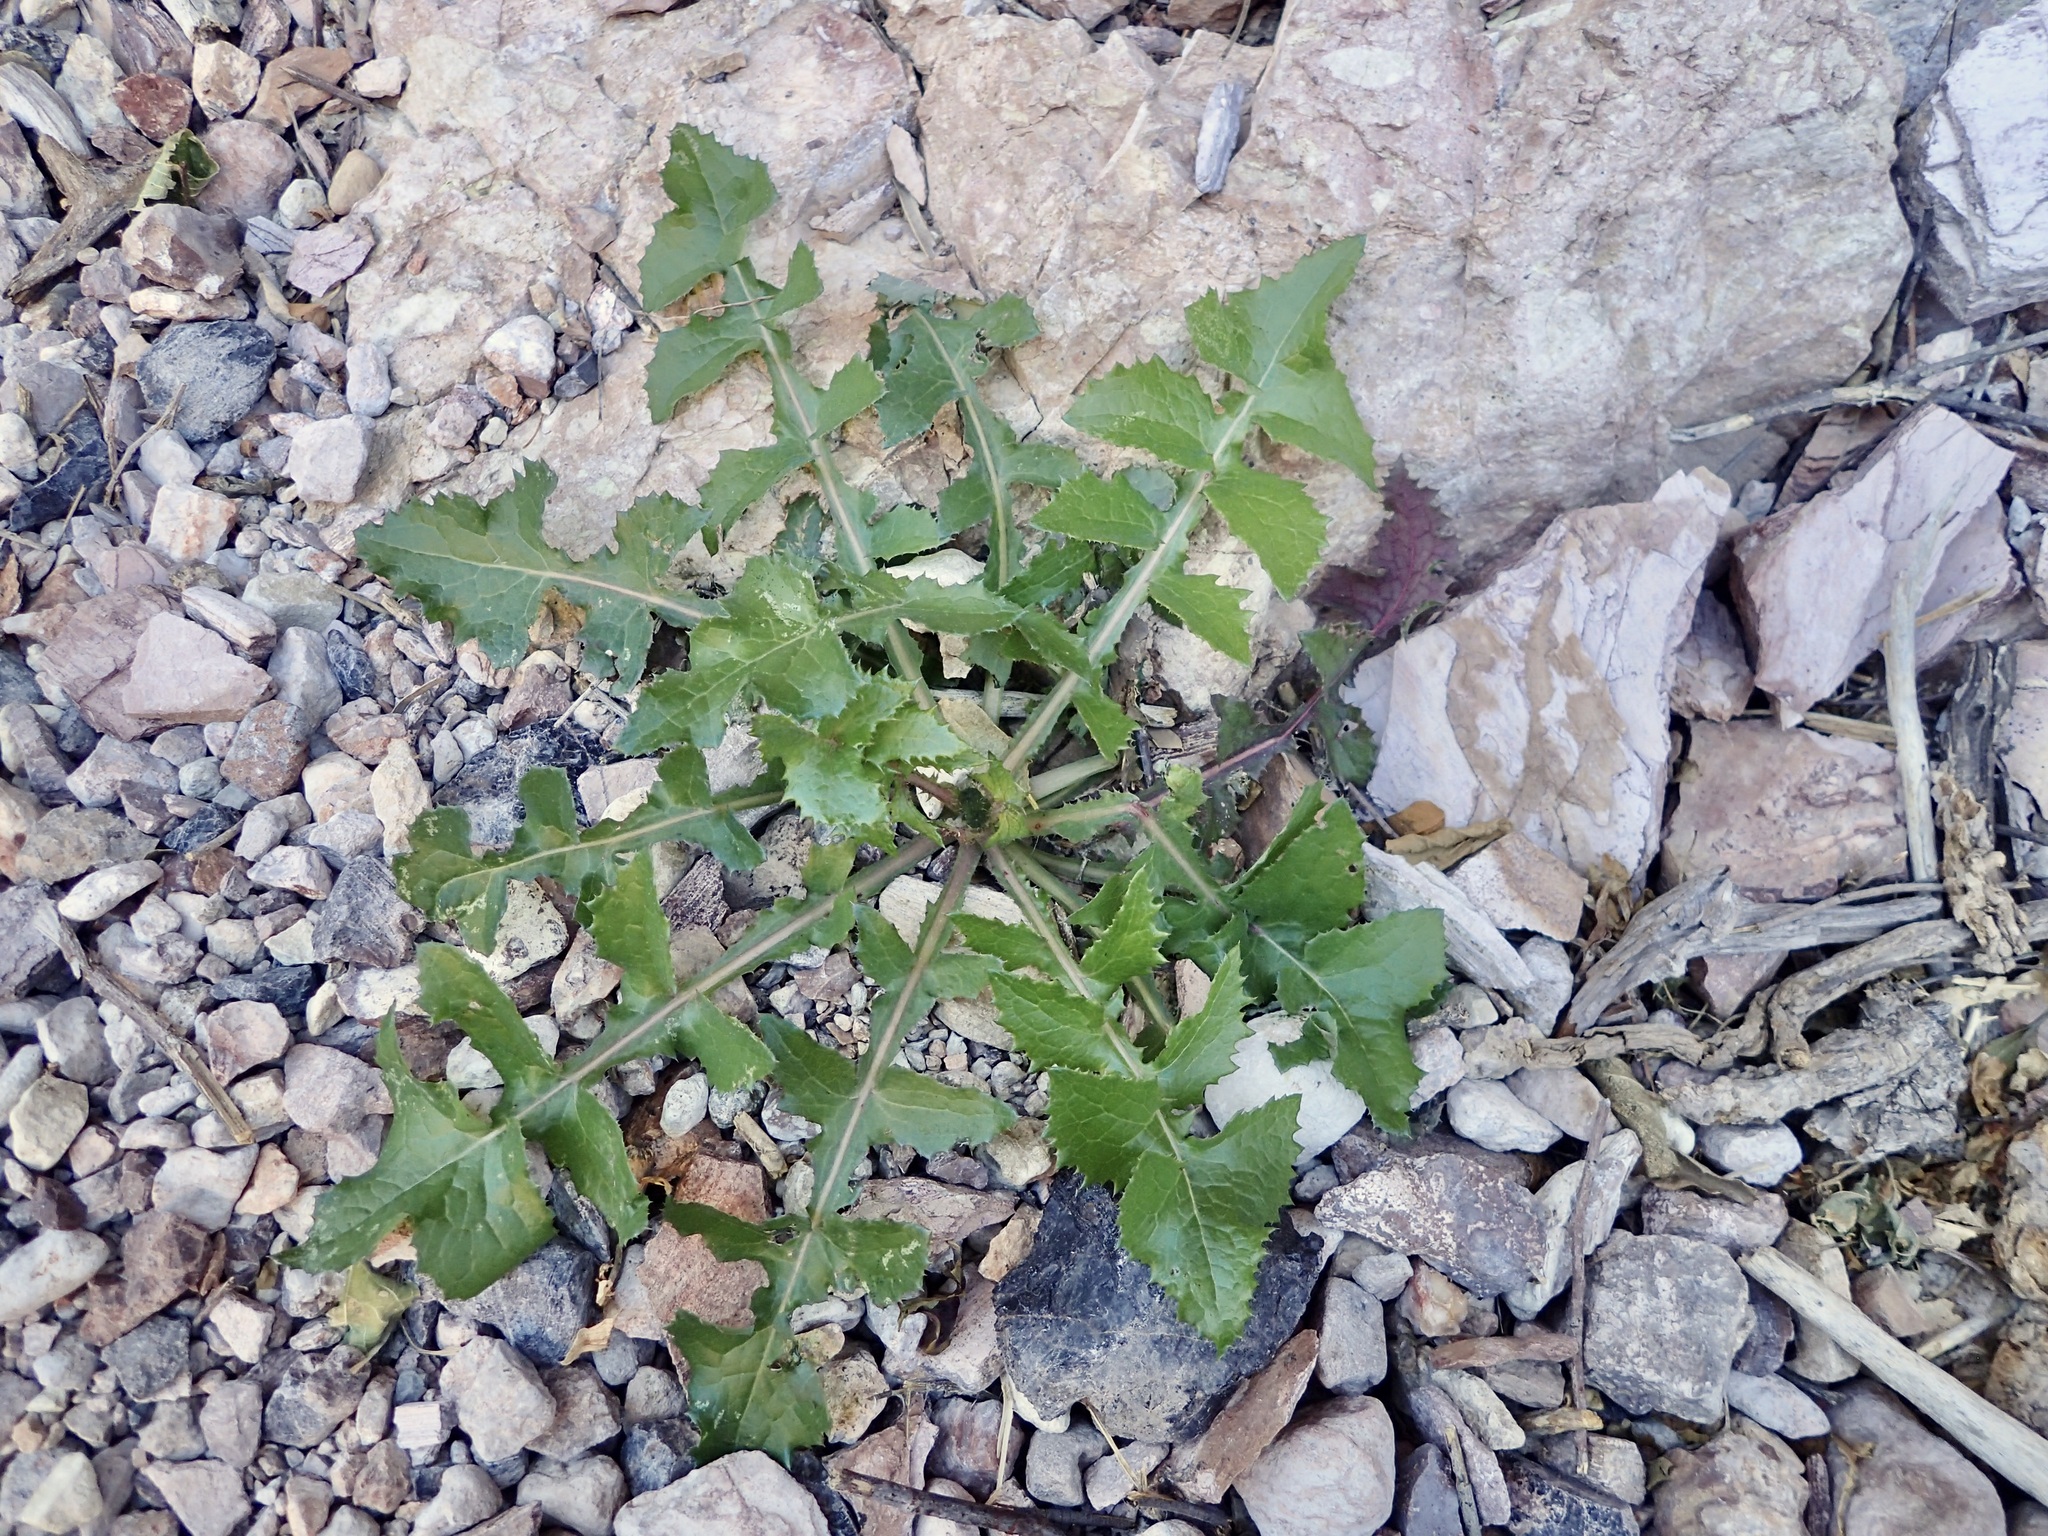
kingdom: Plantae
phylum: Tracheophyta
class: Magnoliopsida
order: Asterales
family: Asteraceae
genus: Sonchus
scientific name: Sonchus oleraceus
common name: Common sowthistle
